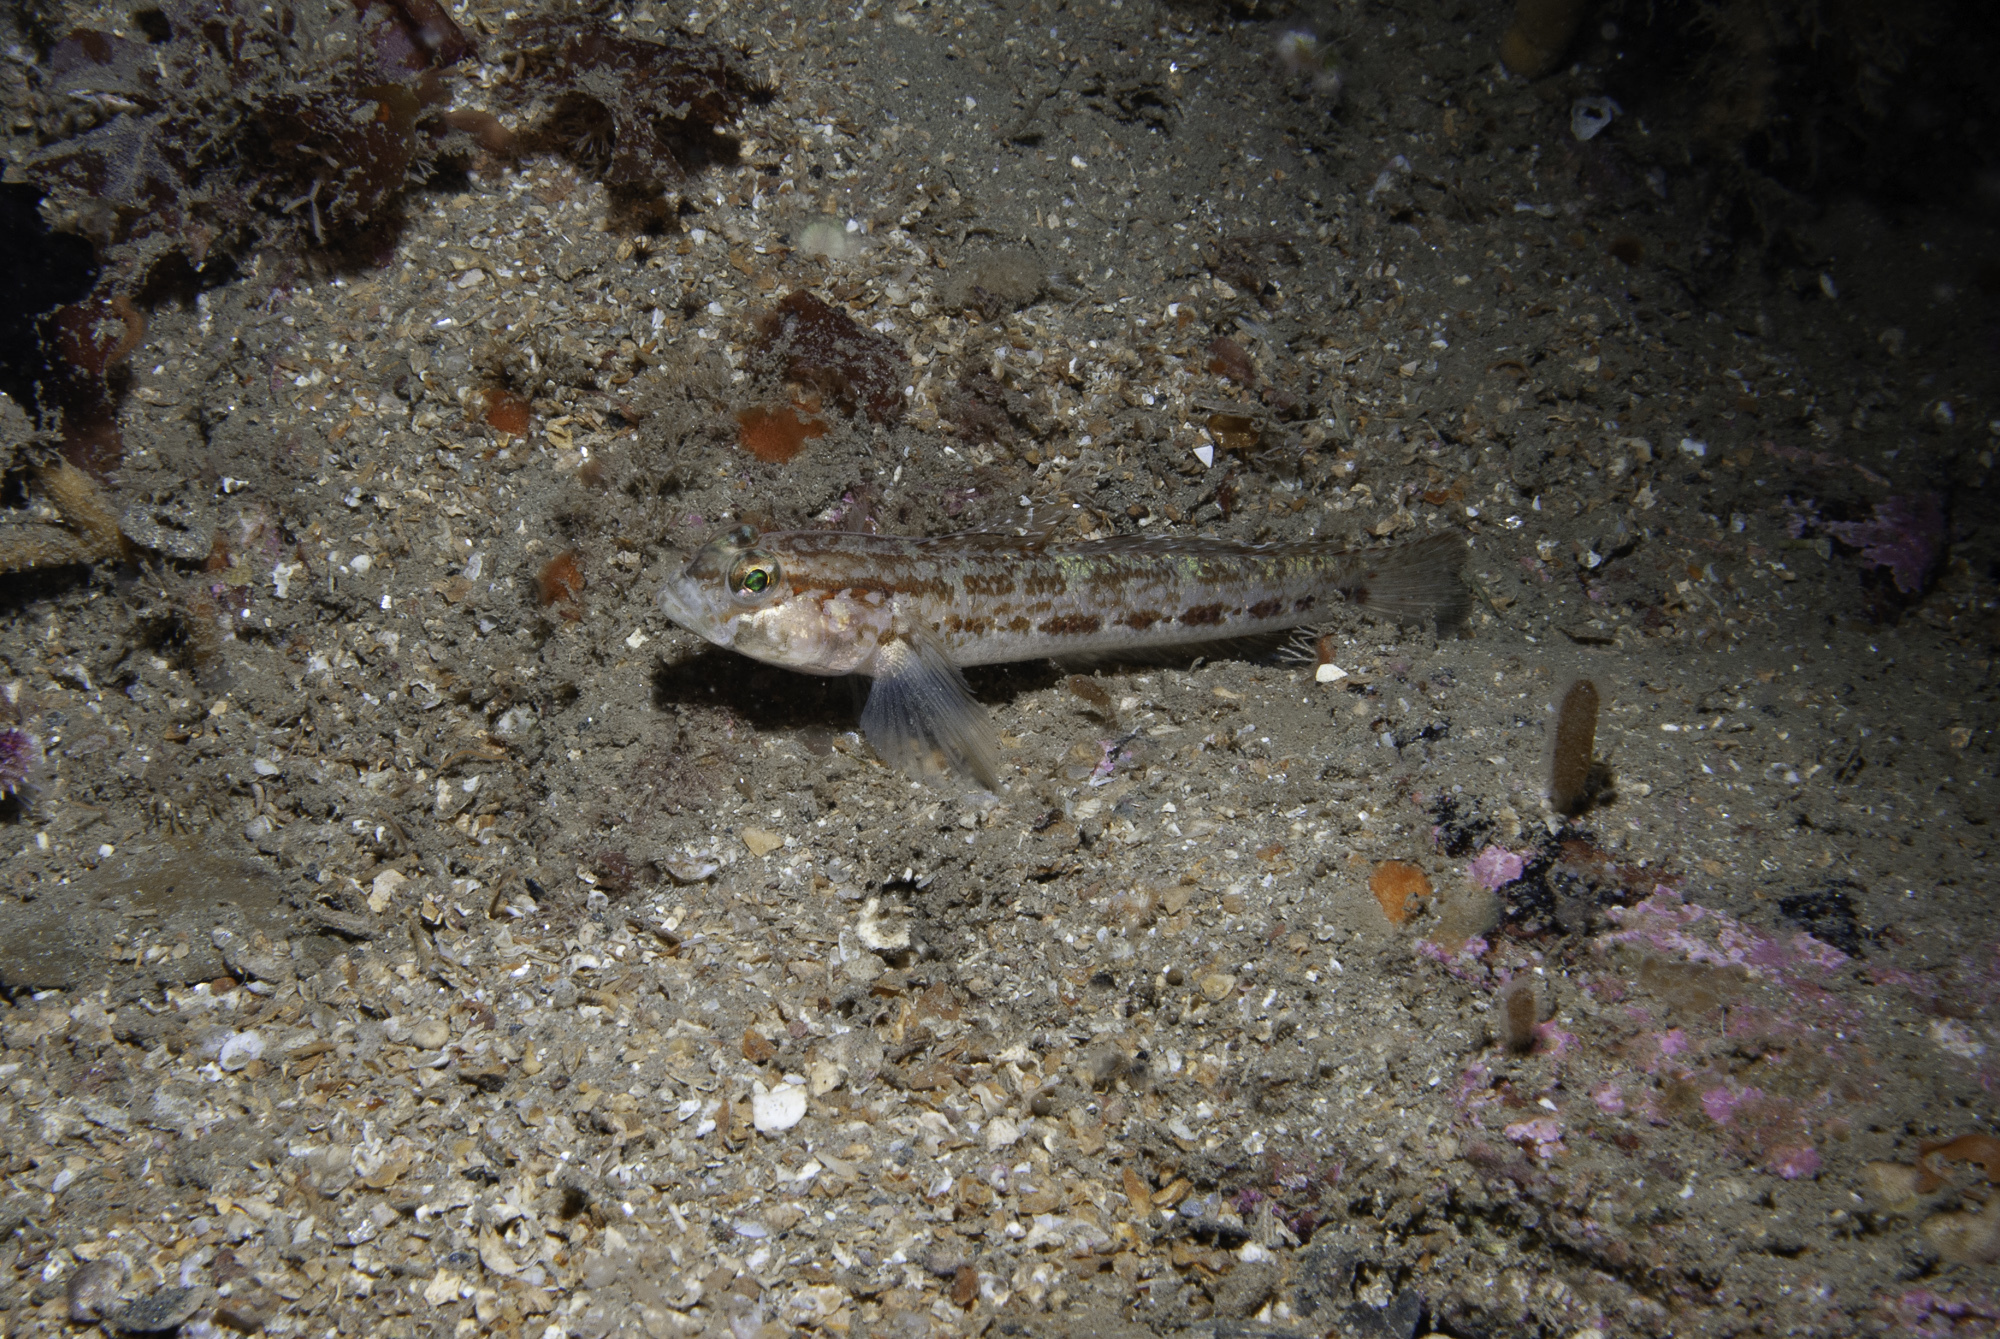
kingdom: Animalia
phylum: Chordata
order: Perciformes
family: Gobiidae
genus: Gobius
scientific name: Gobius gasteveni
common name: Steven's goby
